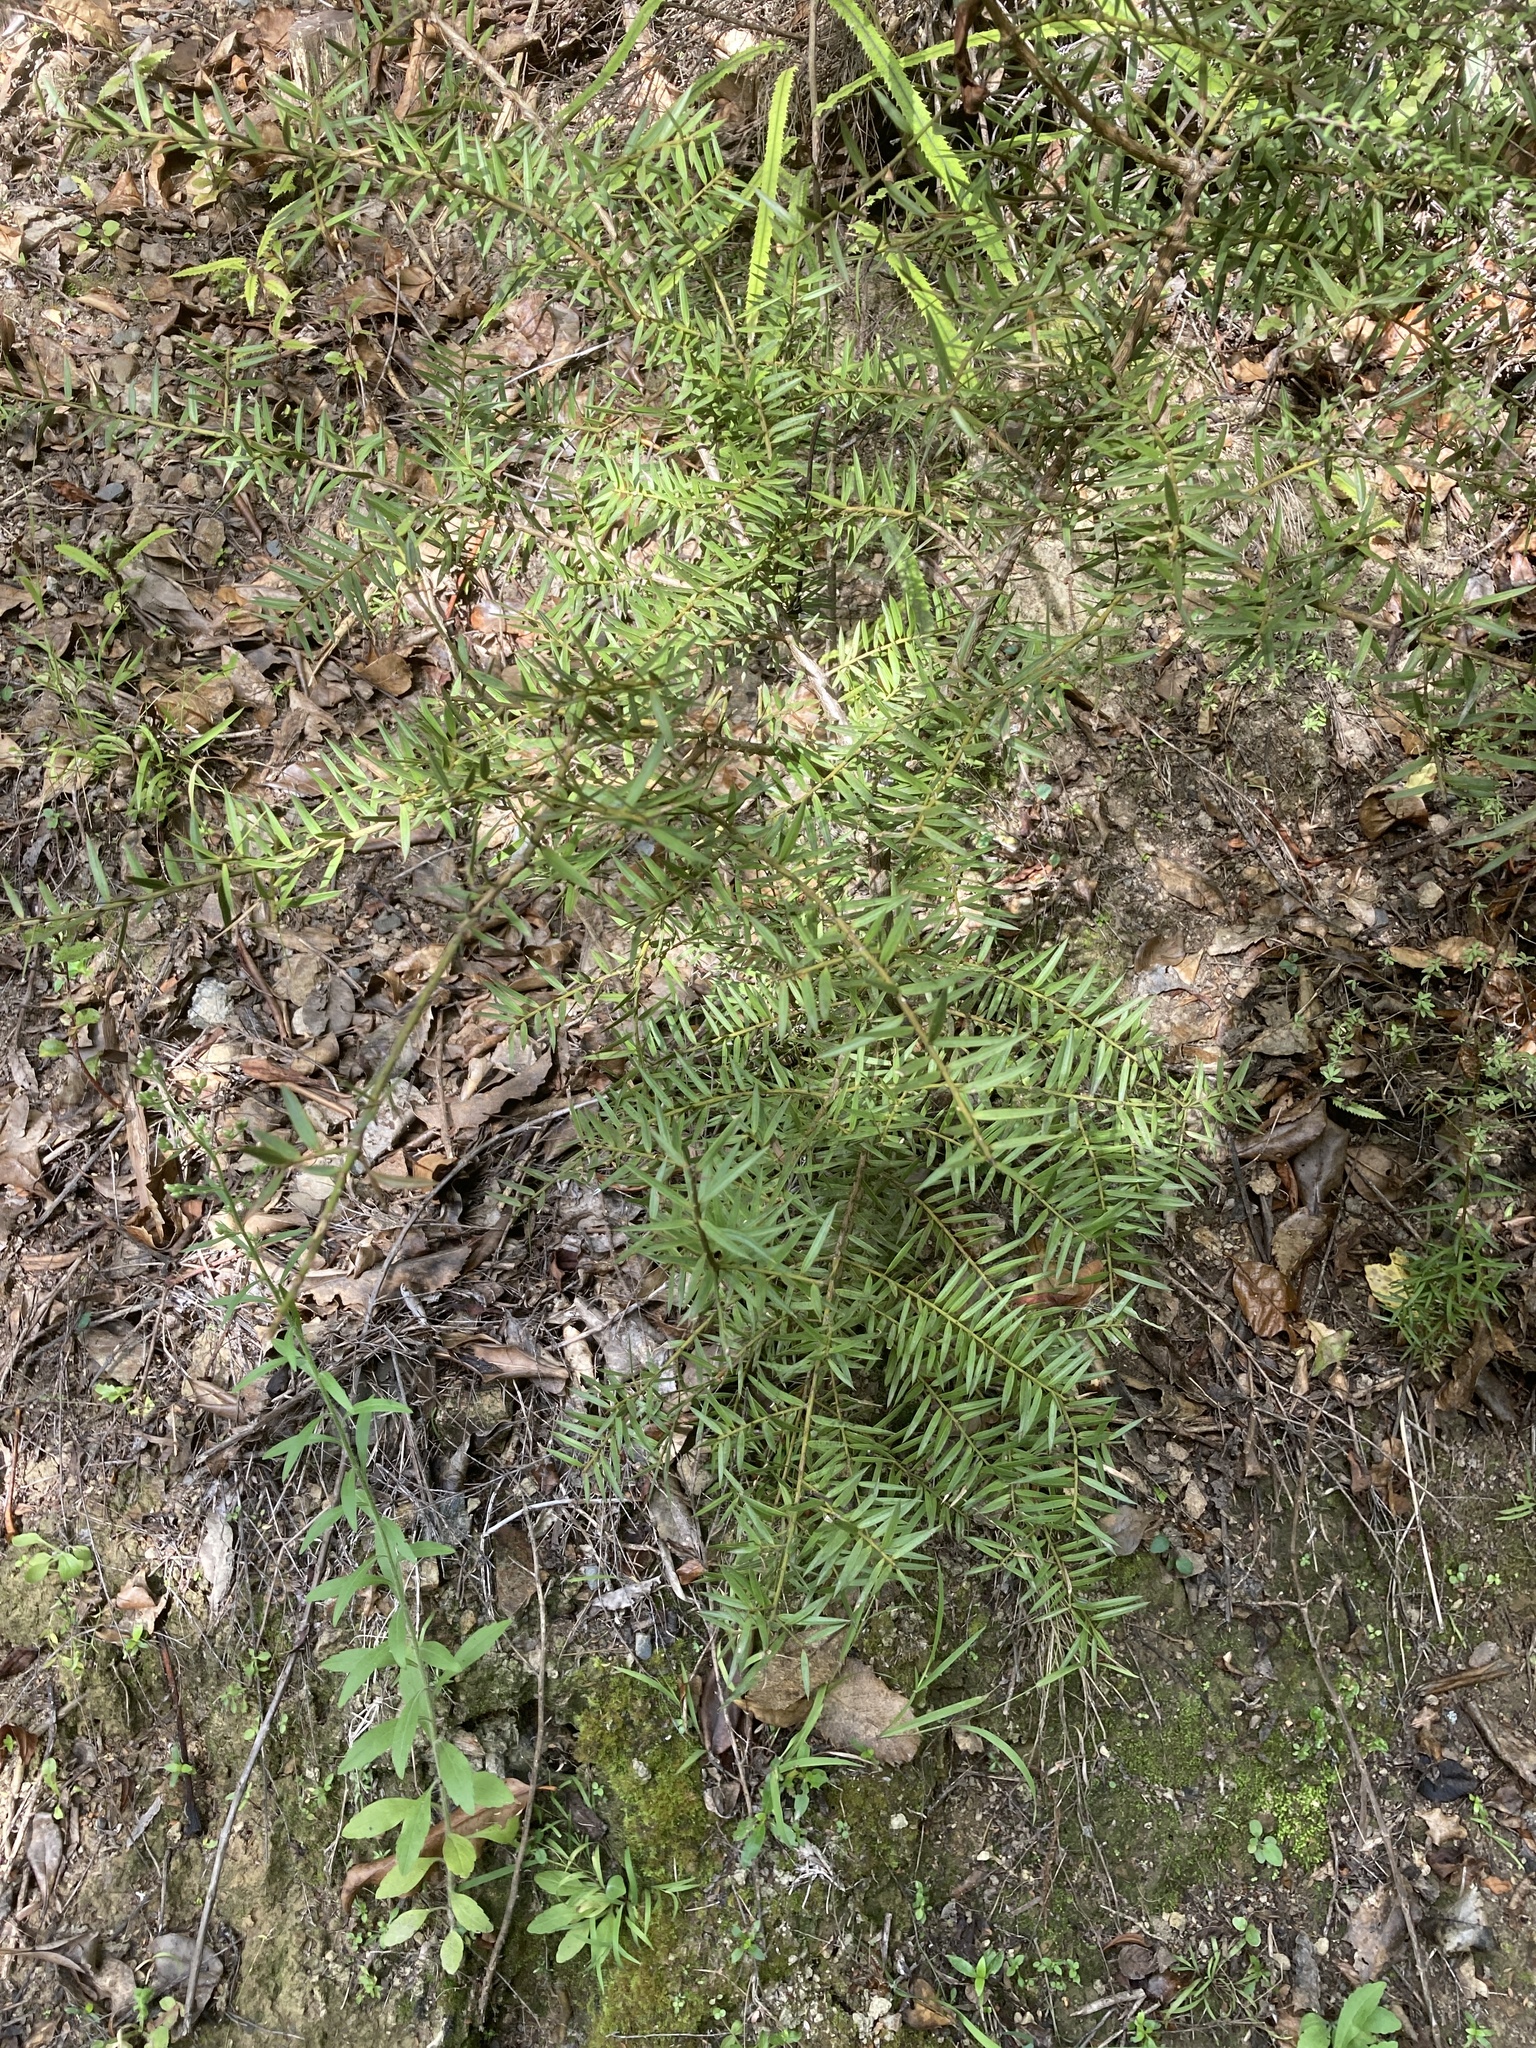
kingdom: Plantae
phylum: Tracheophyta
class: Pinopsida
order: Pinales
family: Podocarpaceae
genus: Podocarpus
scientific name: Podocarpus totara
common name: Totara
